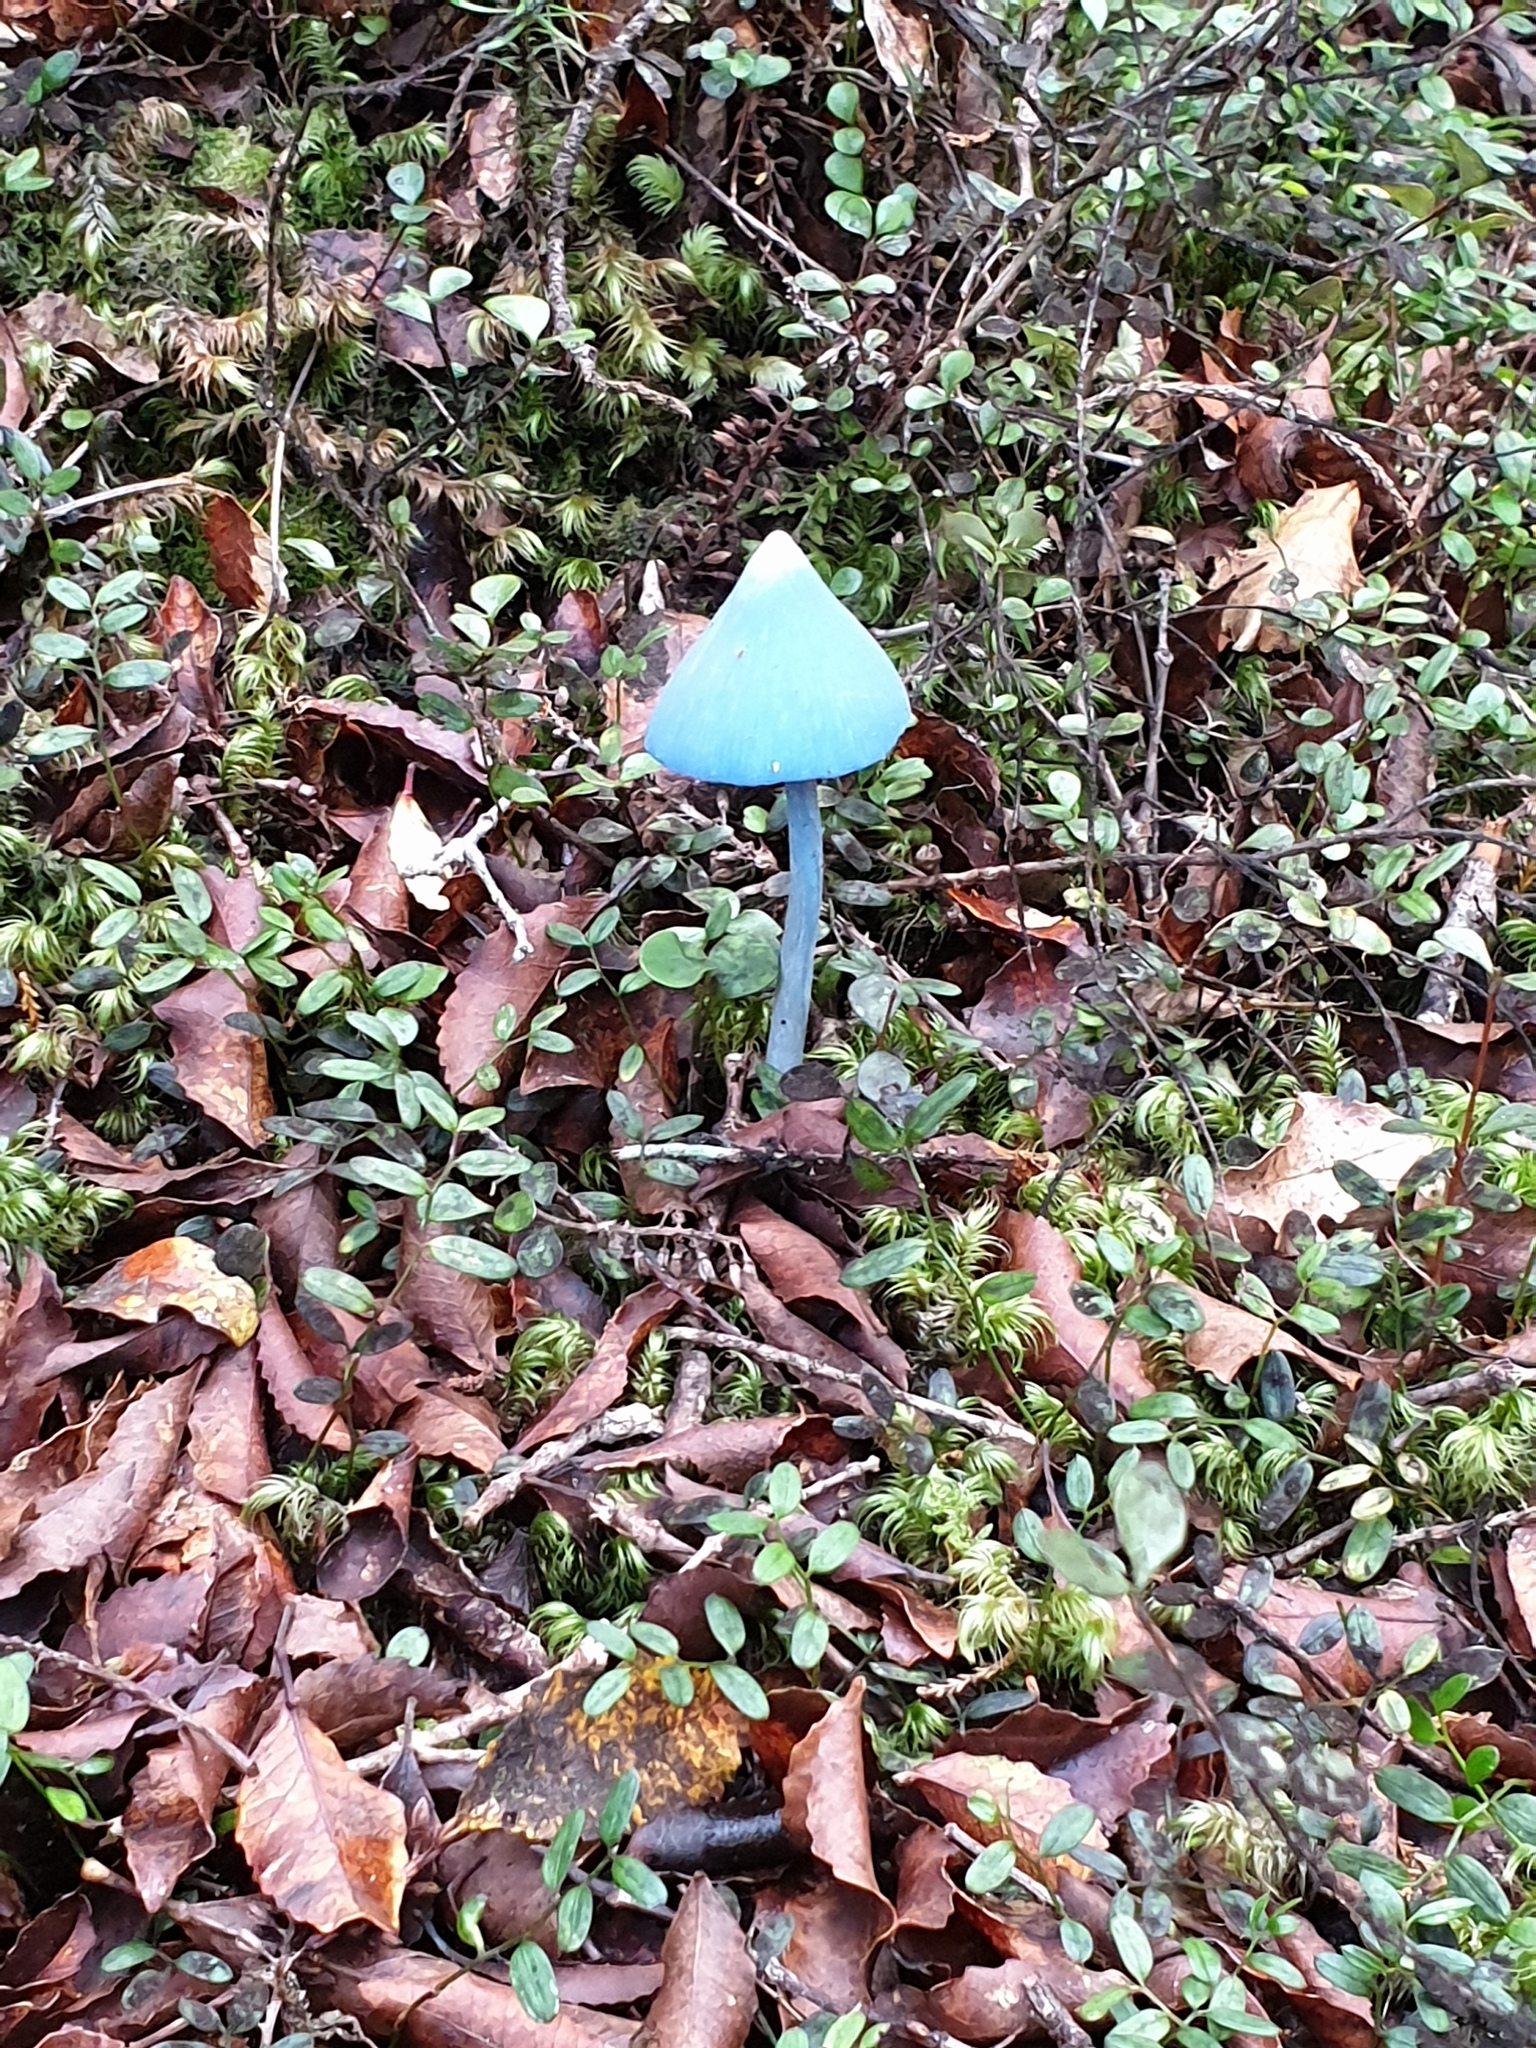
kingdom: Fungi
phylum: Basidiomycota
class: Agaricomycetes
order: Agaricales
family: Entolomataceae
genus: Entoloma
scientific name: Entoloma hochstetteri
